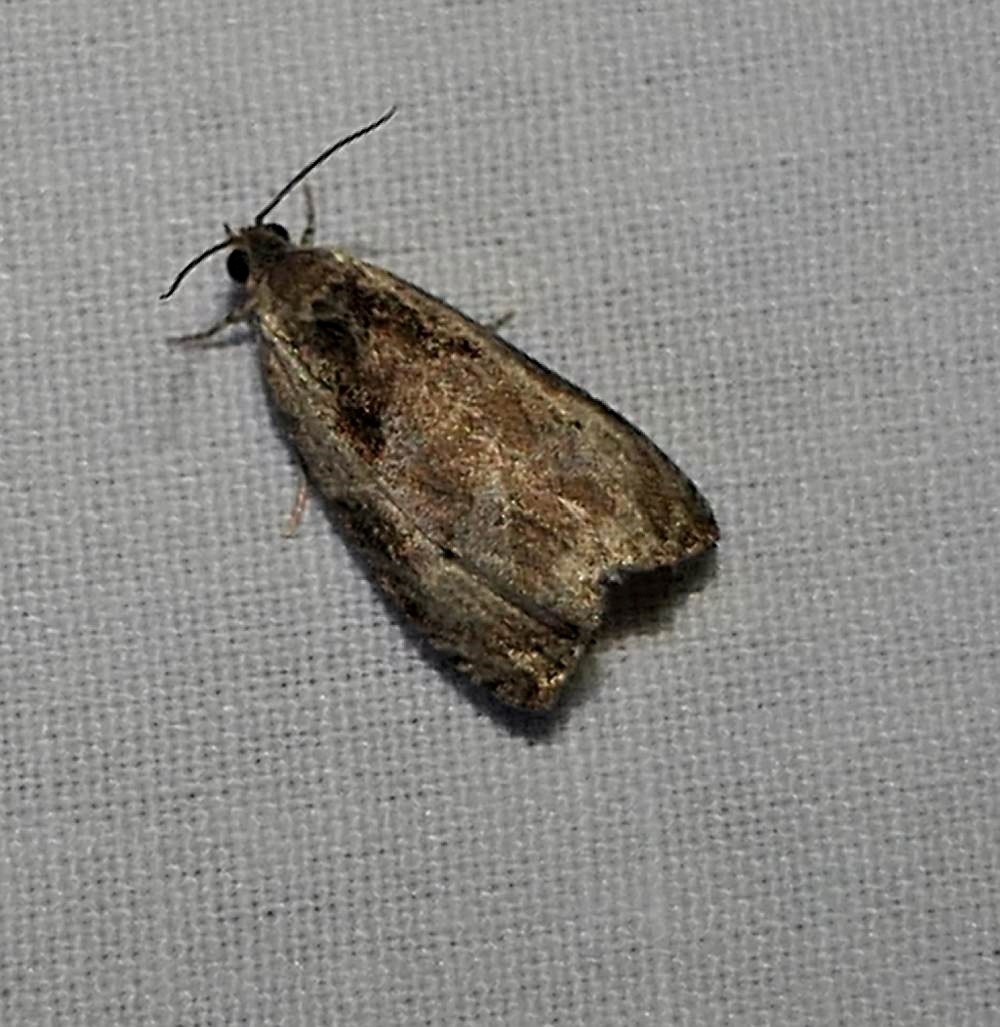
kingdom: Animalia
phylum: Arthropoda
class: Insecta
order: Lepidoptera
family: Tortricidae
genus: Olethreutes
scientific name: Olethreutes punctanum
